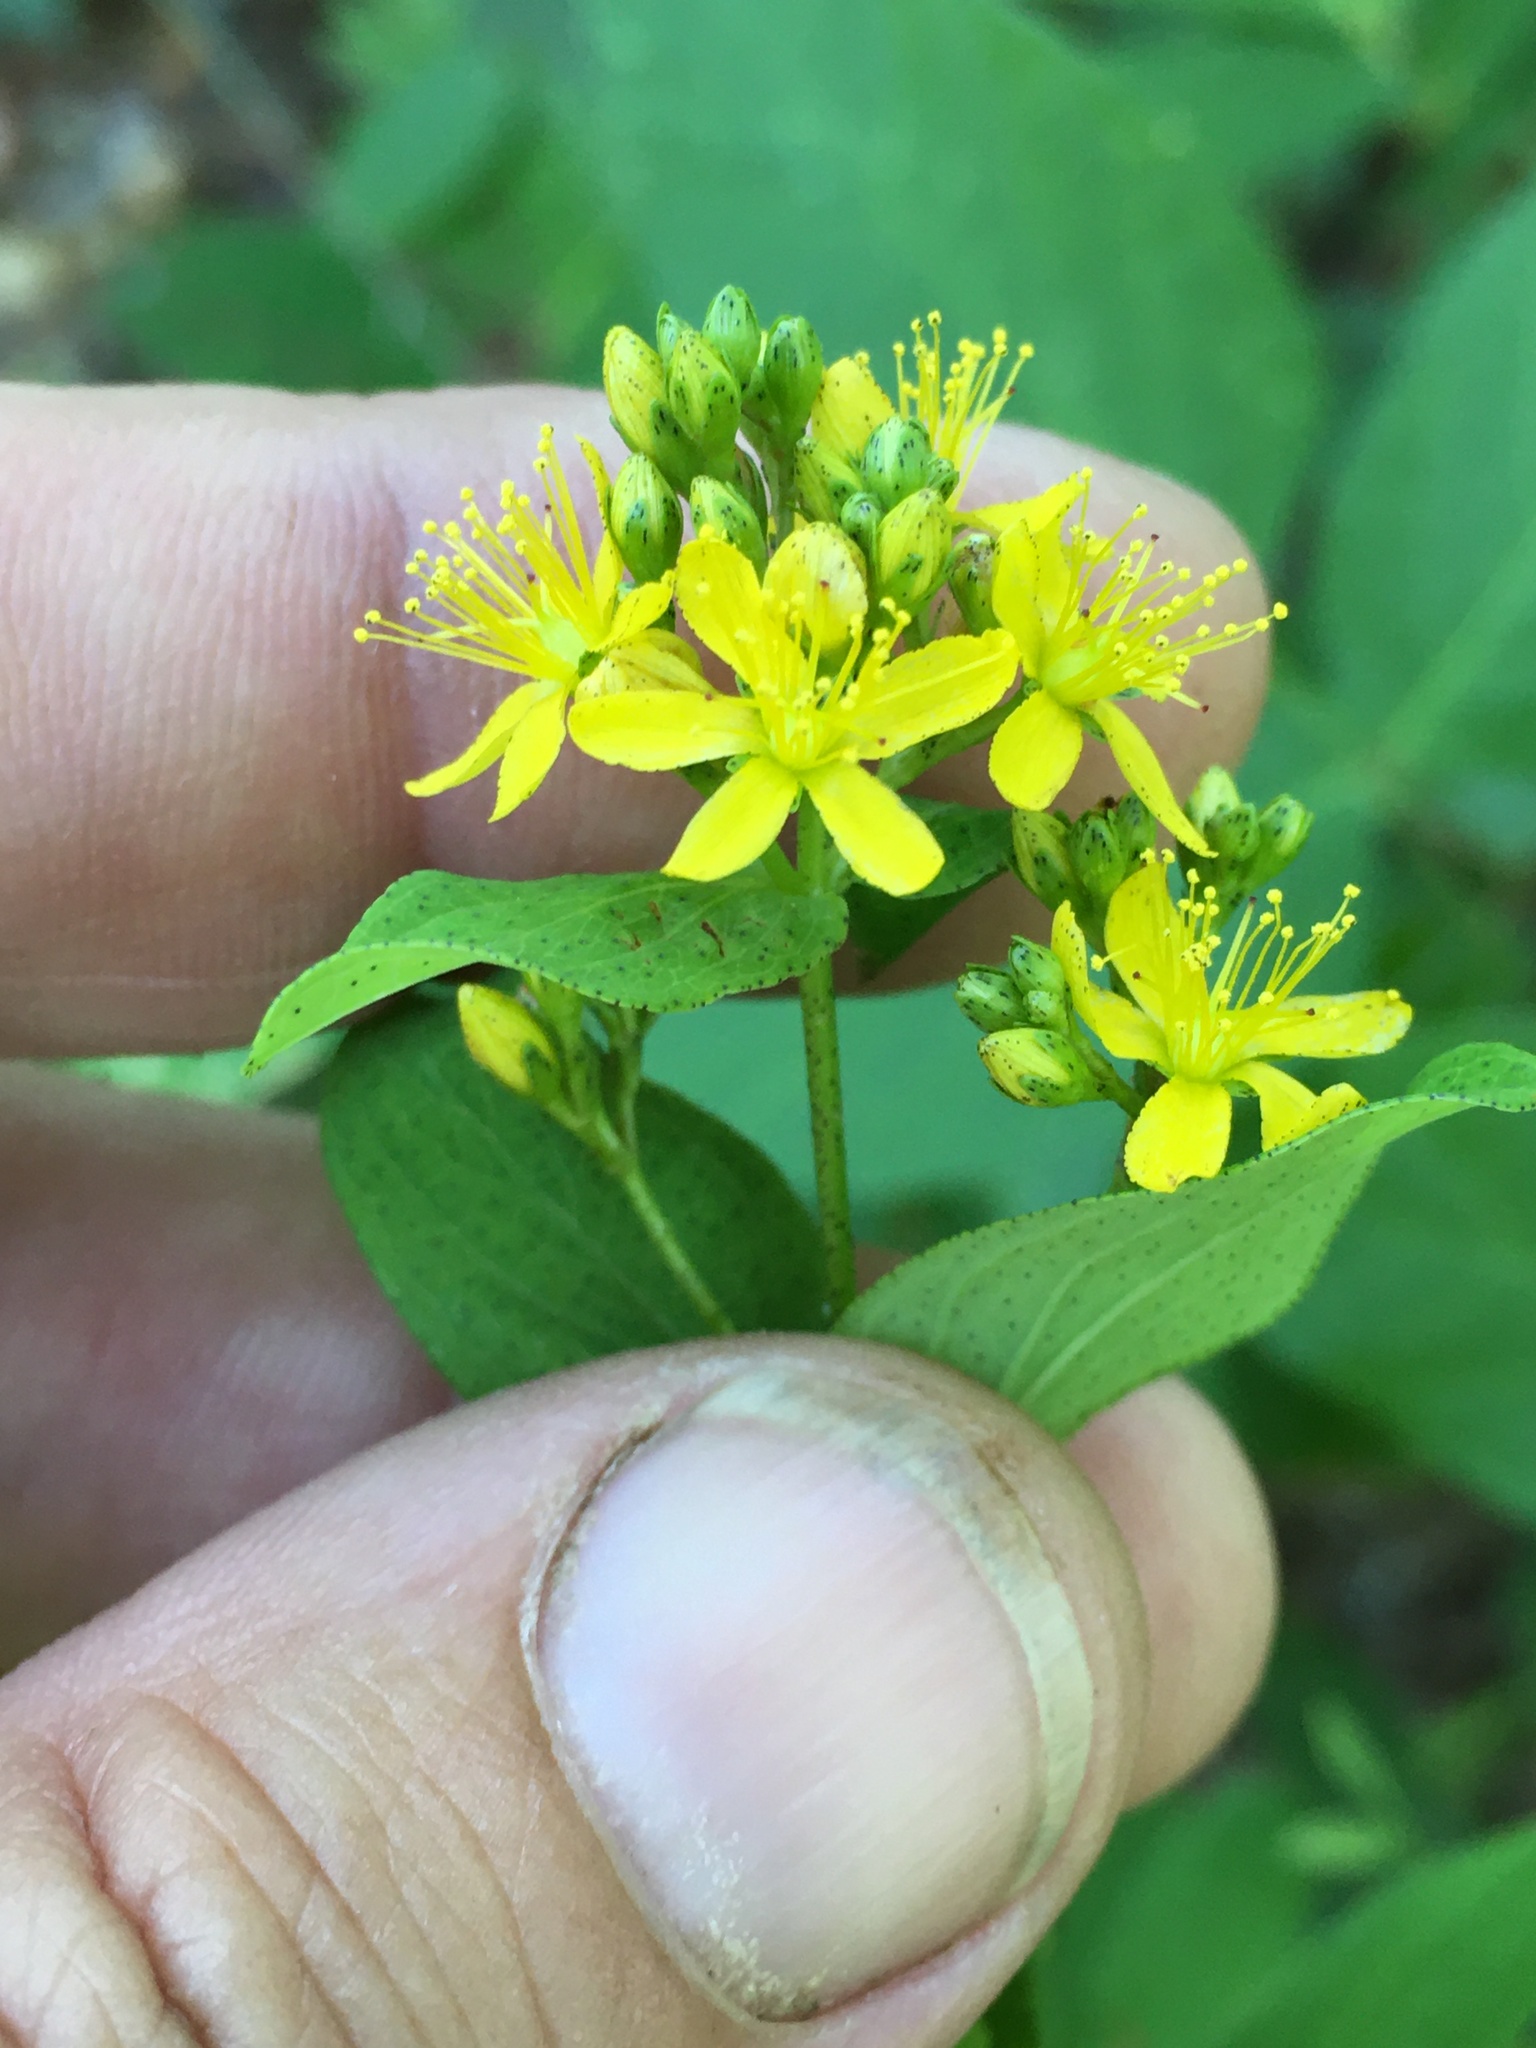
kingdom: Plantae
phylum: Tracheophyta
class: Magnoliopsida
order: Malpighiales
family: Hypericaceae
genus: Hypericum
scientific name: Hypericum punctatum
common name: Spotted st. john's-wort
